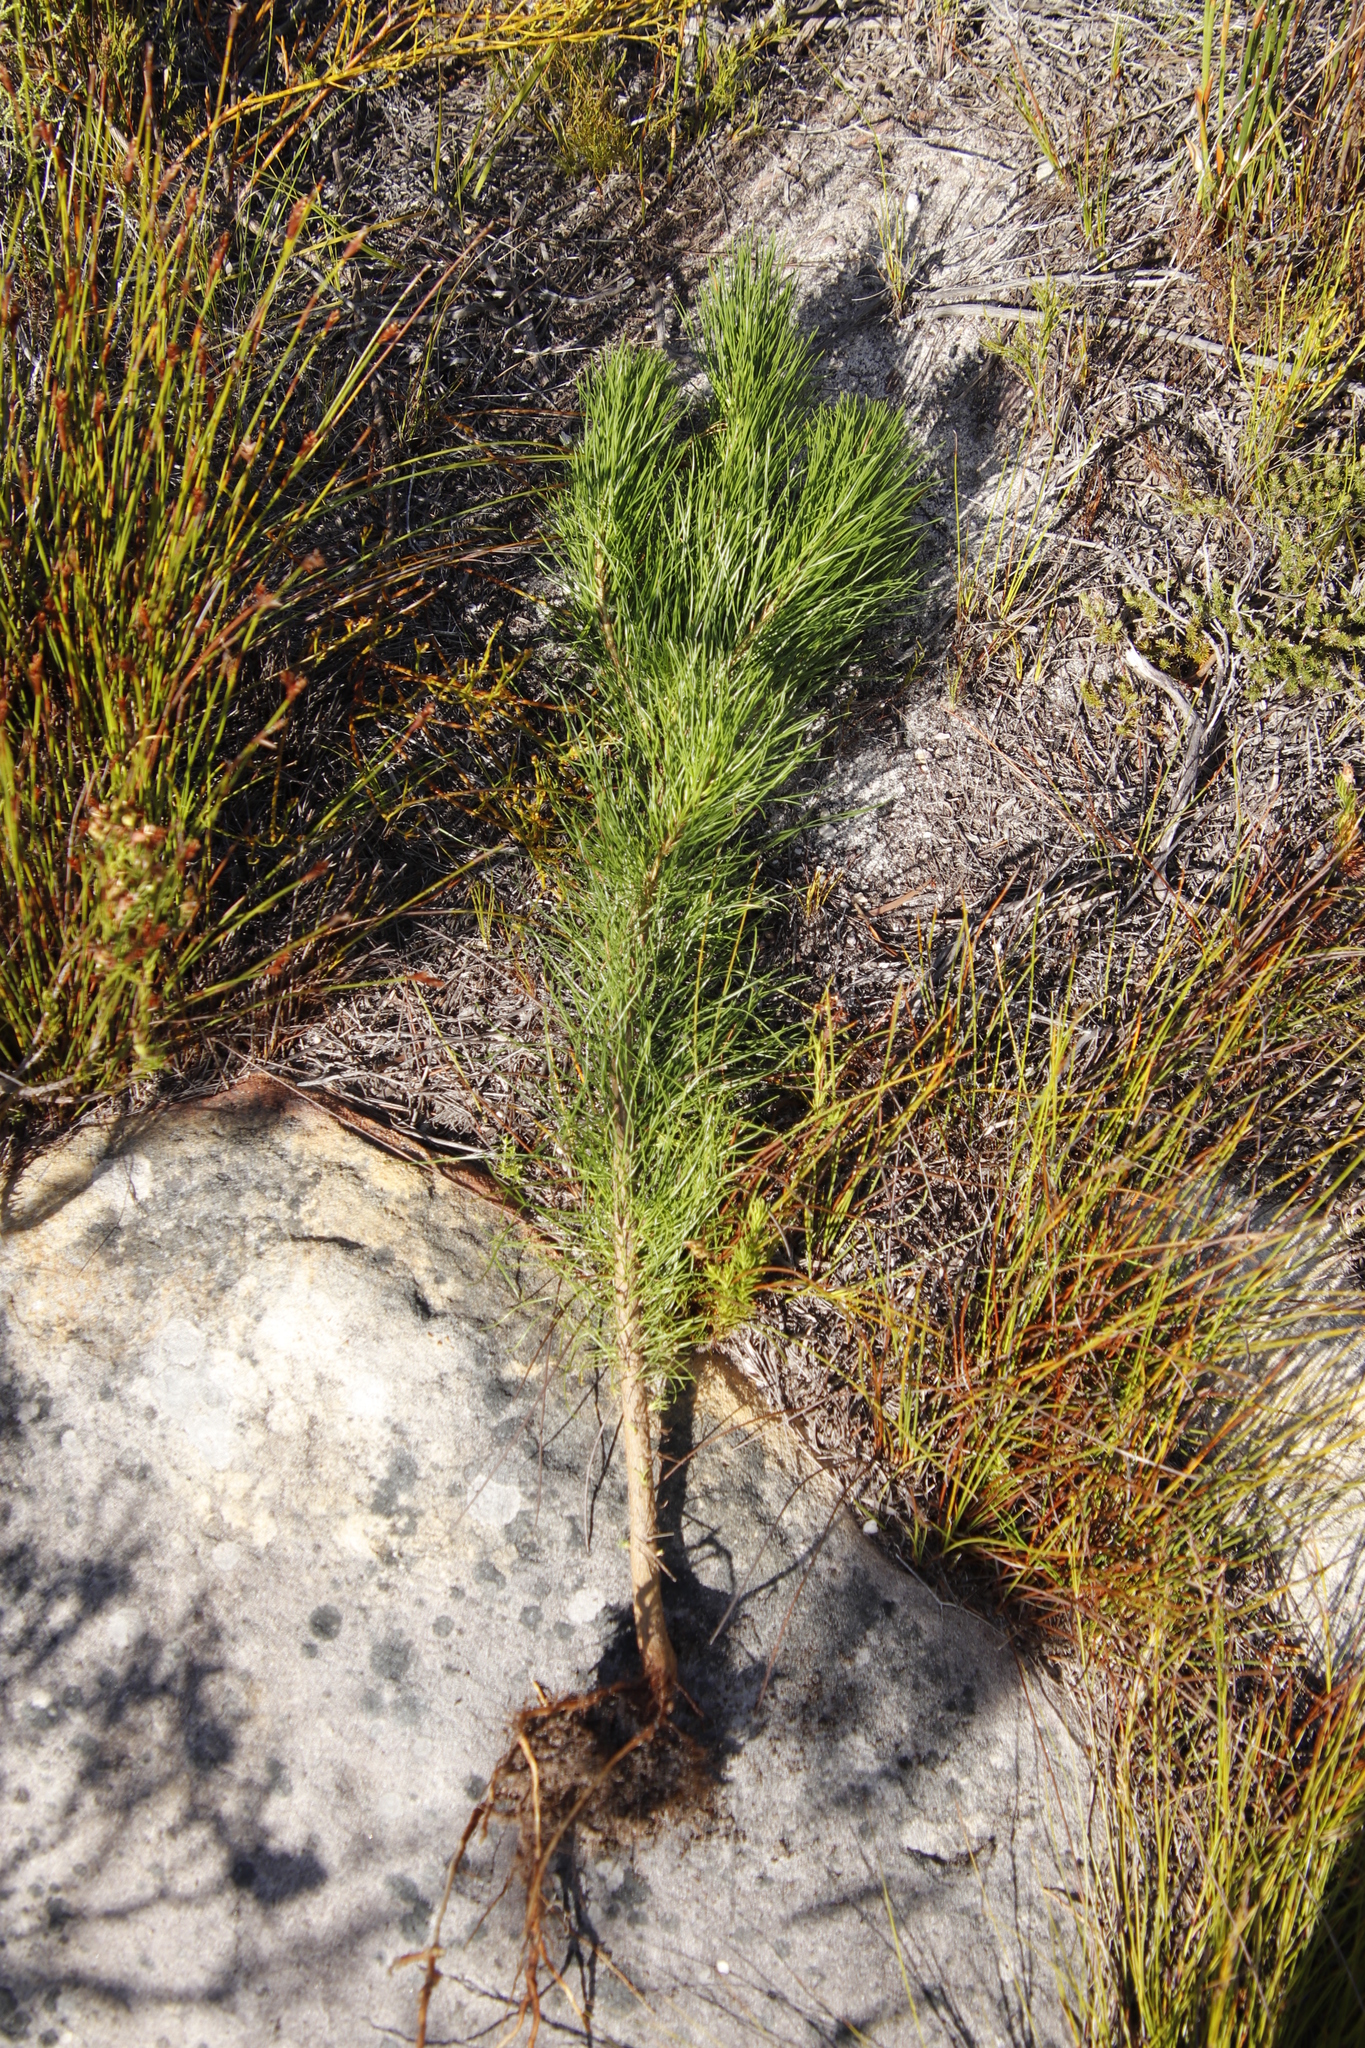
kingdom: Plantae
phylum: Tracheophyta
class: Pinopsida
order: Pinales
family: Pinaceae
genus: Pinus
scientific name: Pinus radiata
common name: Monterey pine
